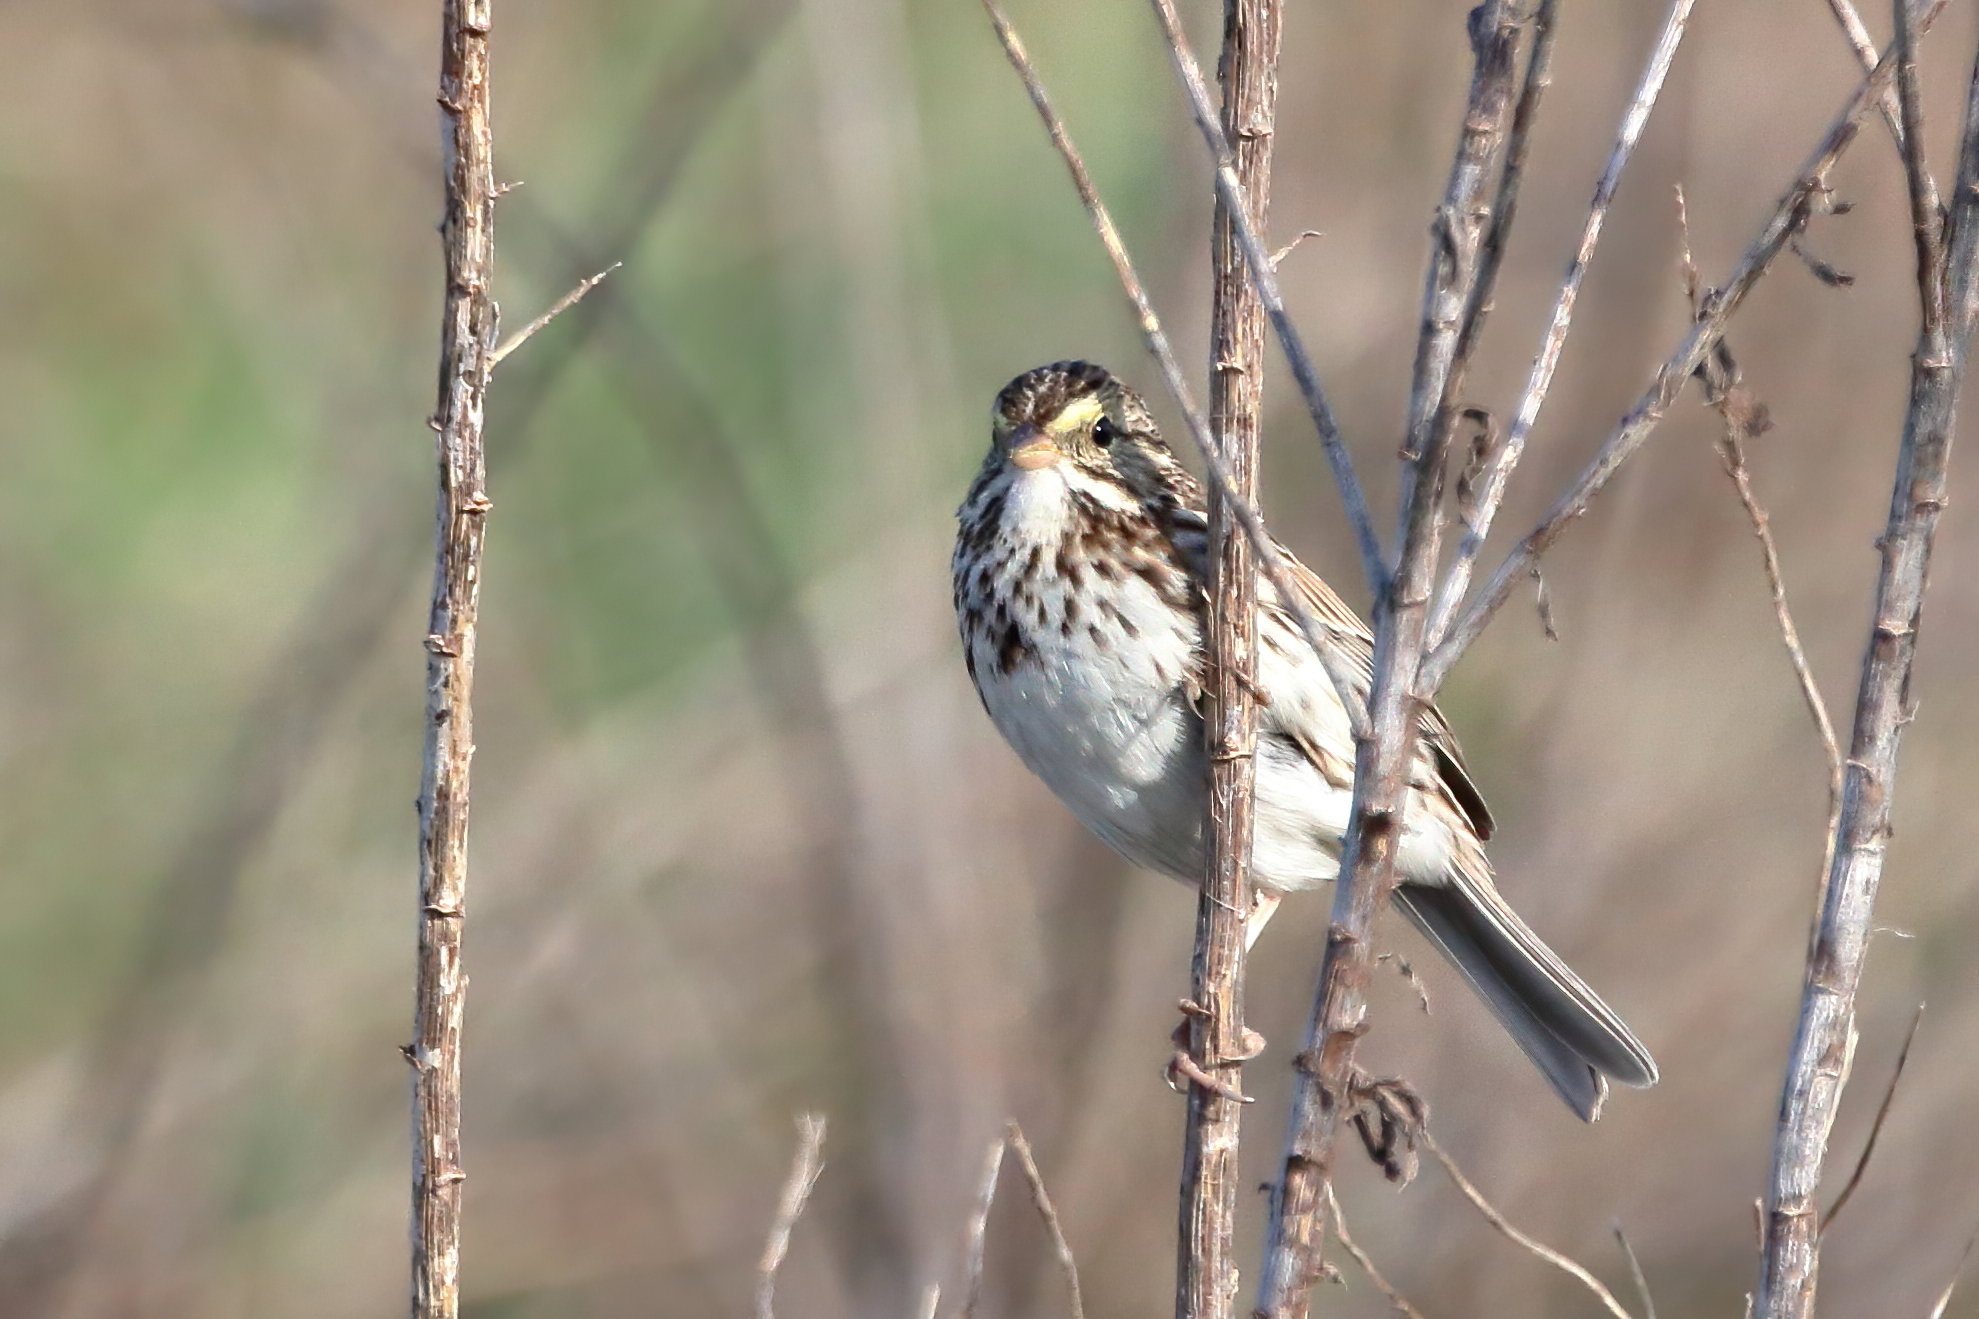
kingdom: Animalia
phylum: Chordata
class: Aves
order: Passeriformes
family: Passerellidae
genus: Passerculus
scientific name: Passerculus sandwichensis
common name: Savannah sparrow
